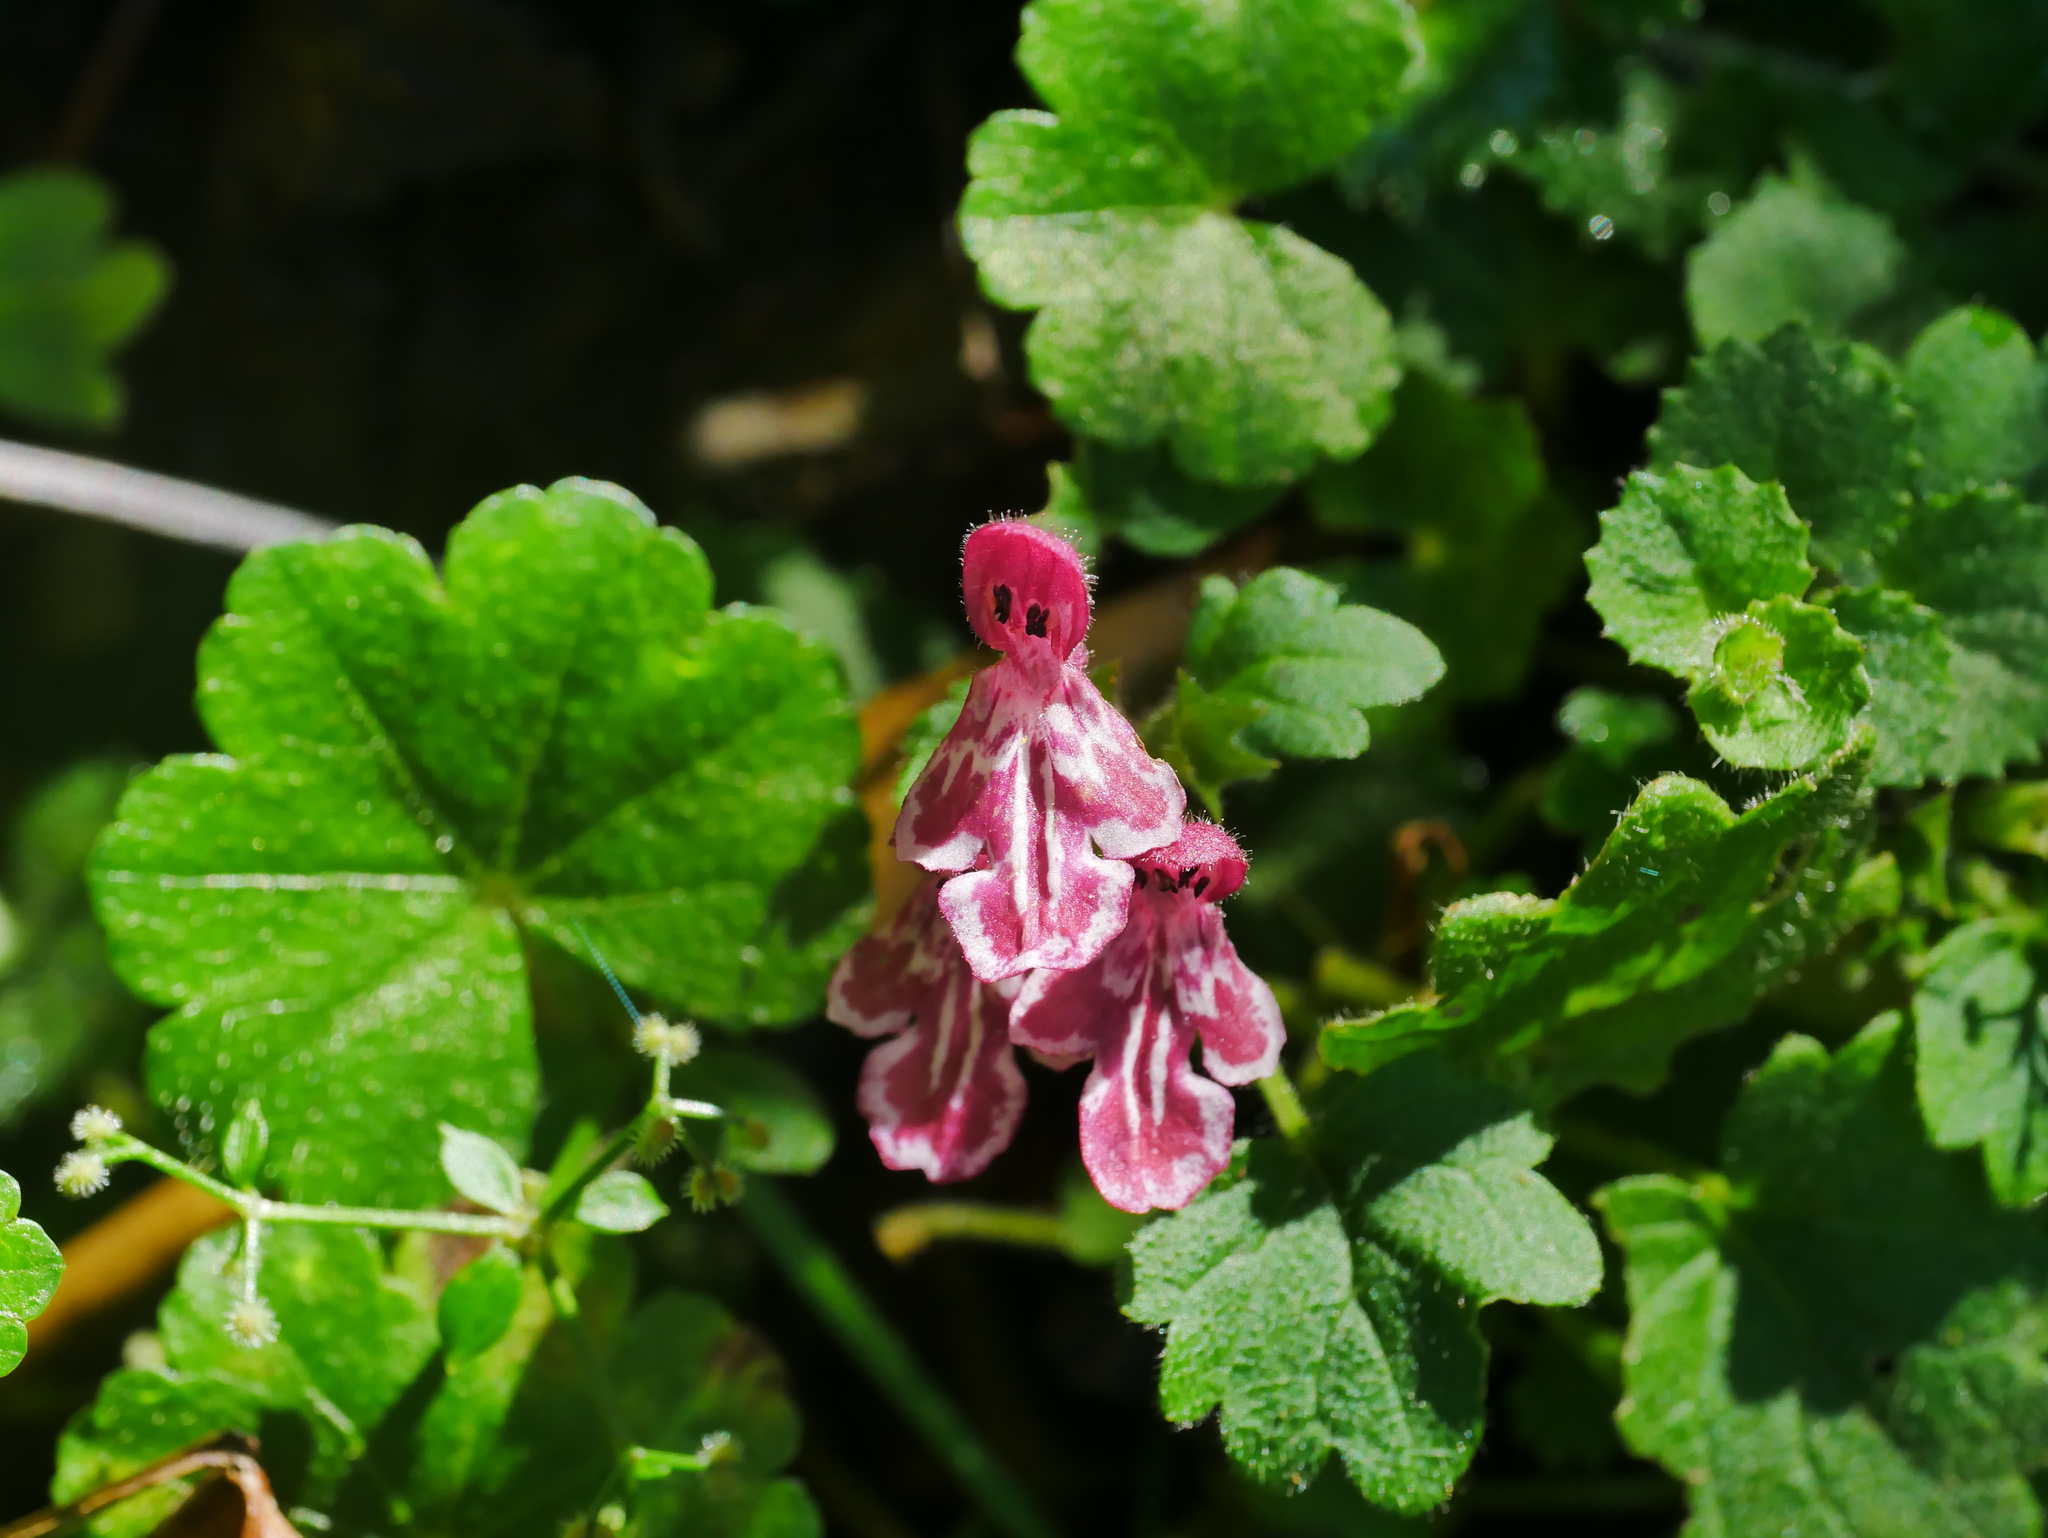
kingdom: Plantae
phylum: Tracheophyta
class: Magnoliopsida
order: Lamiales
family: Lamiaceae
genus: Suzukia
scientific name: Suzukia shikikunensis
